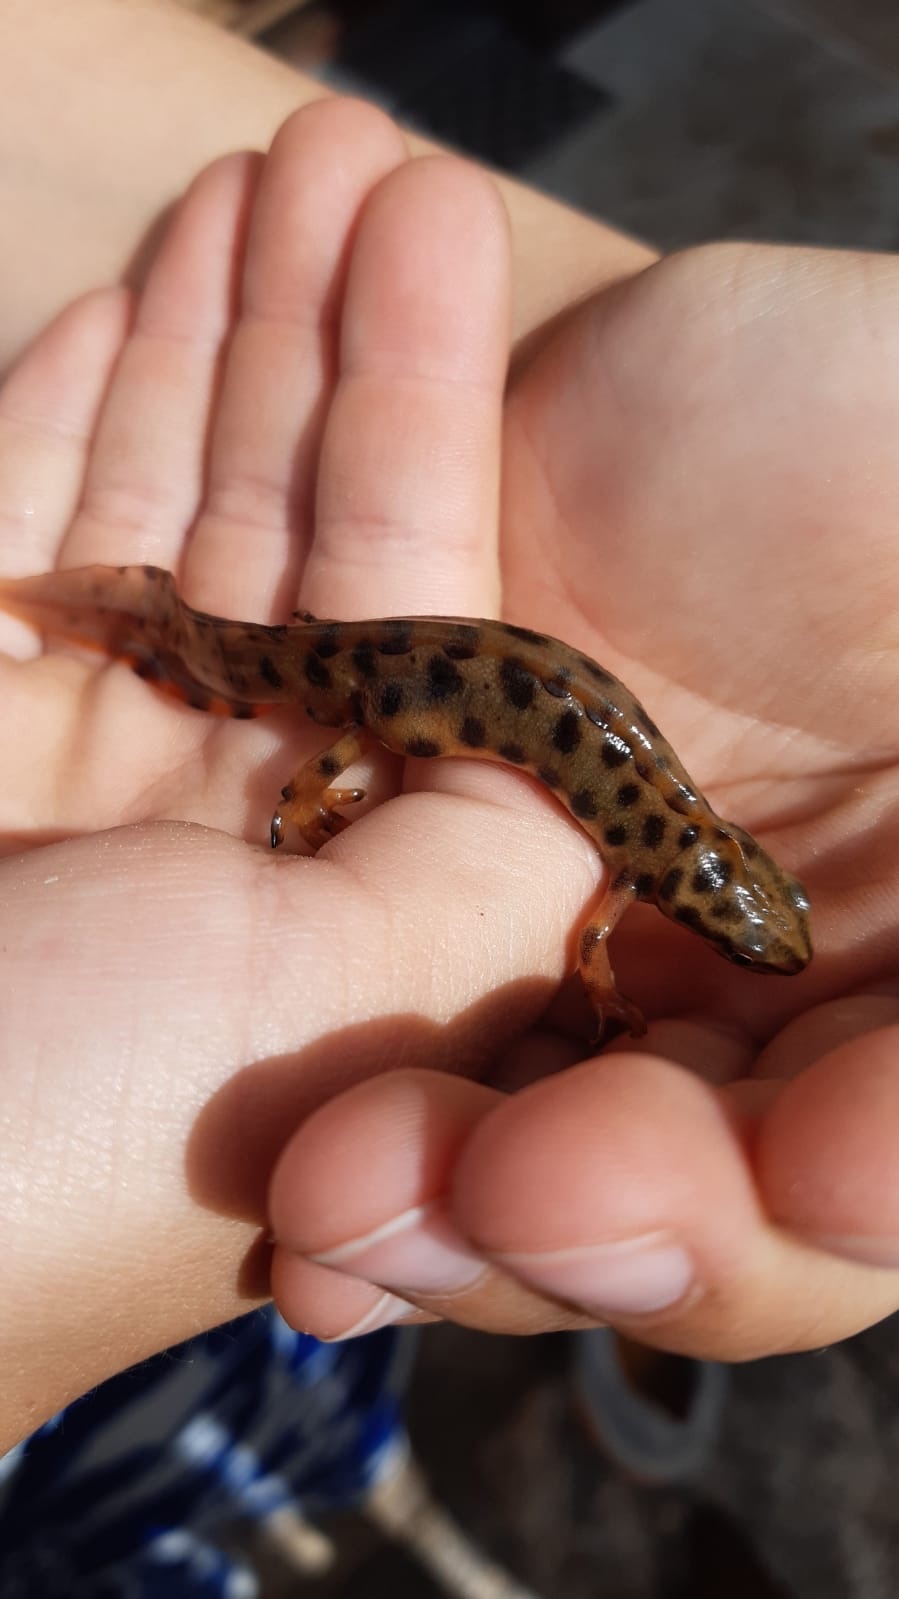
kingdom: Animalia
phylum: Chordata
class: Amphibia
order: Caudata
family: Salamandridae
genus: Lissotriton
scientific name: Lissotriton vulgaris
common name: Smooth newt
